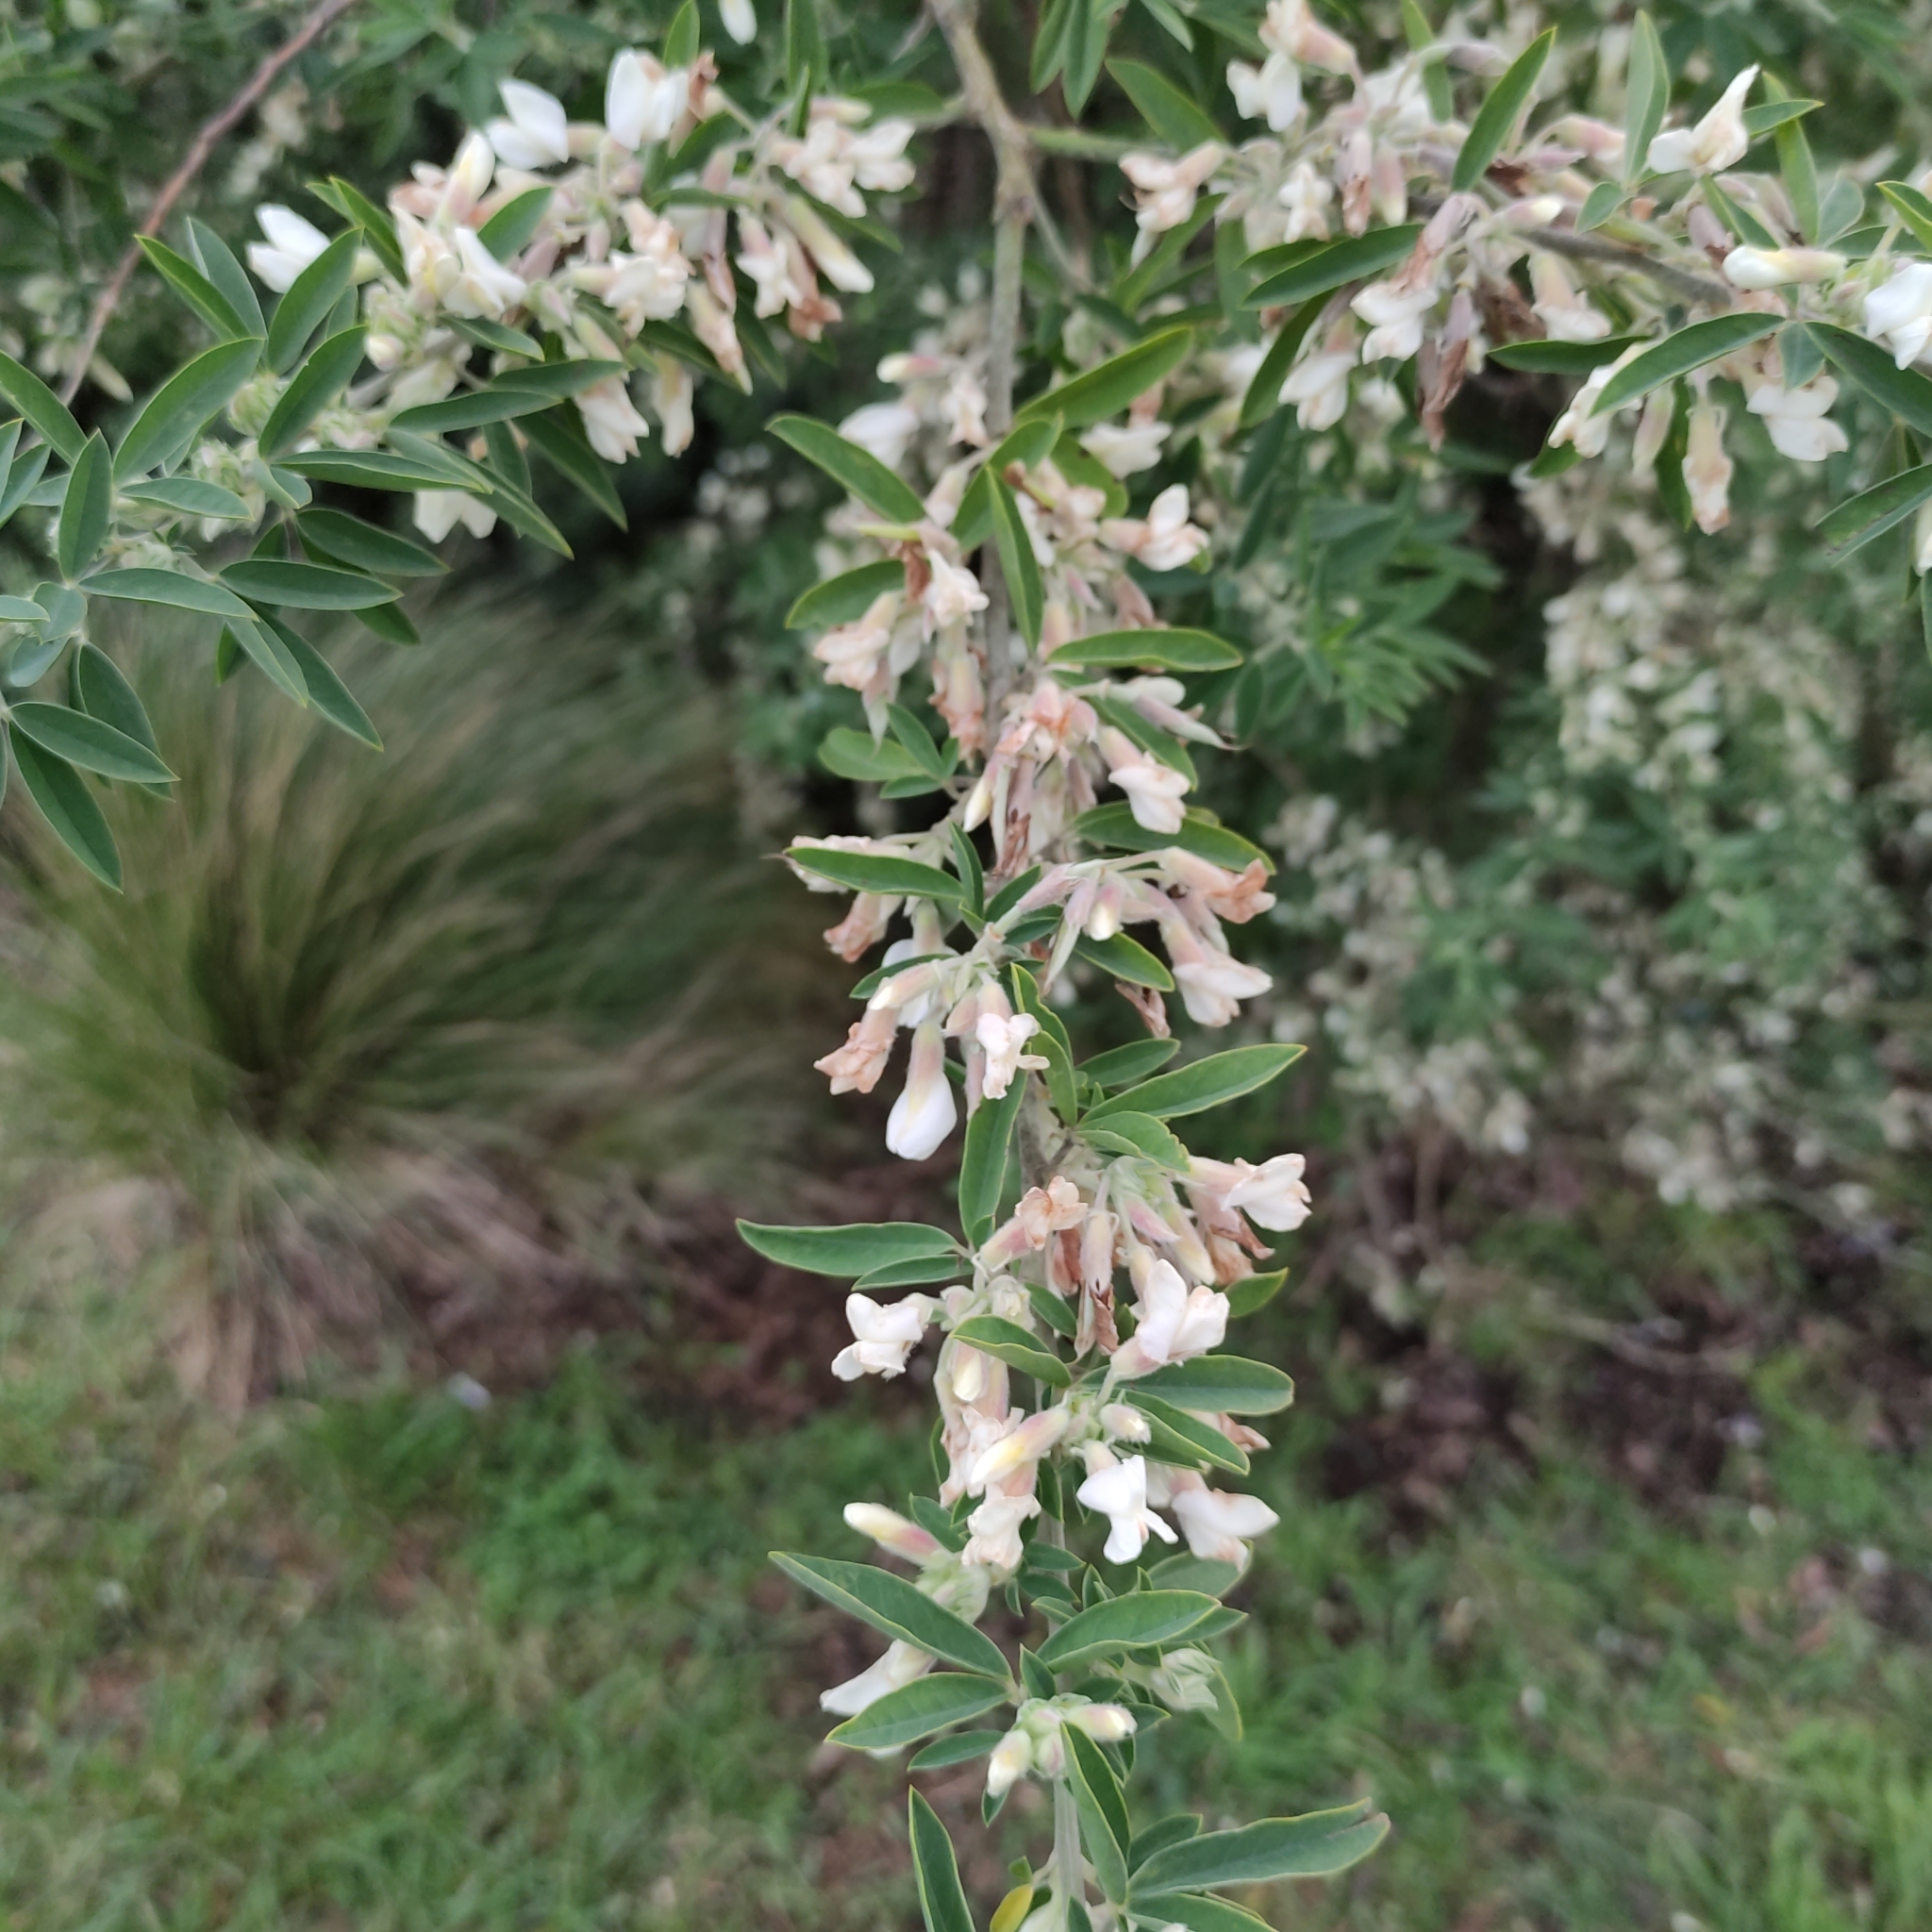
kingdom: Plantae
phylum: Tracheophyta
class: Magnoliopsida
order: Fabales
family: Fabaceae
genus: Chamaecytisus
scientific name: Chamaecytisus prolifer
